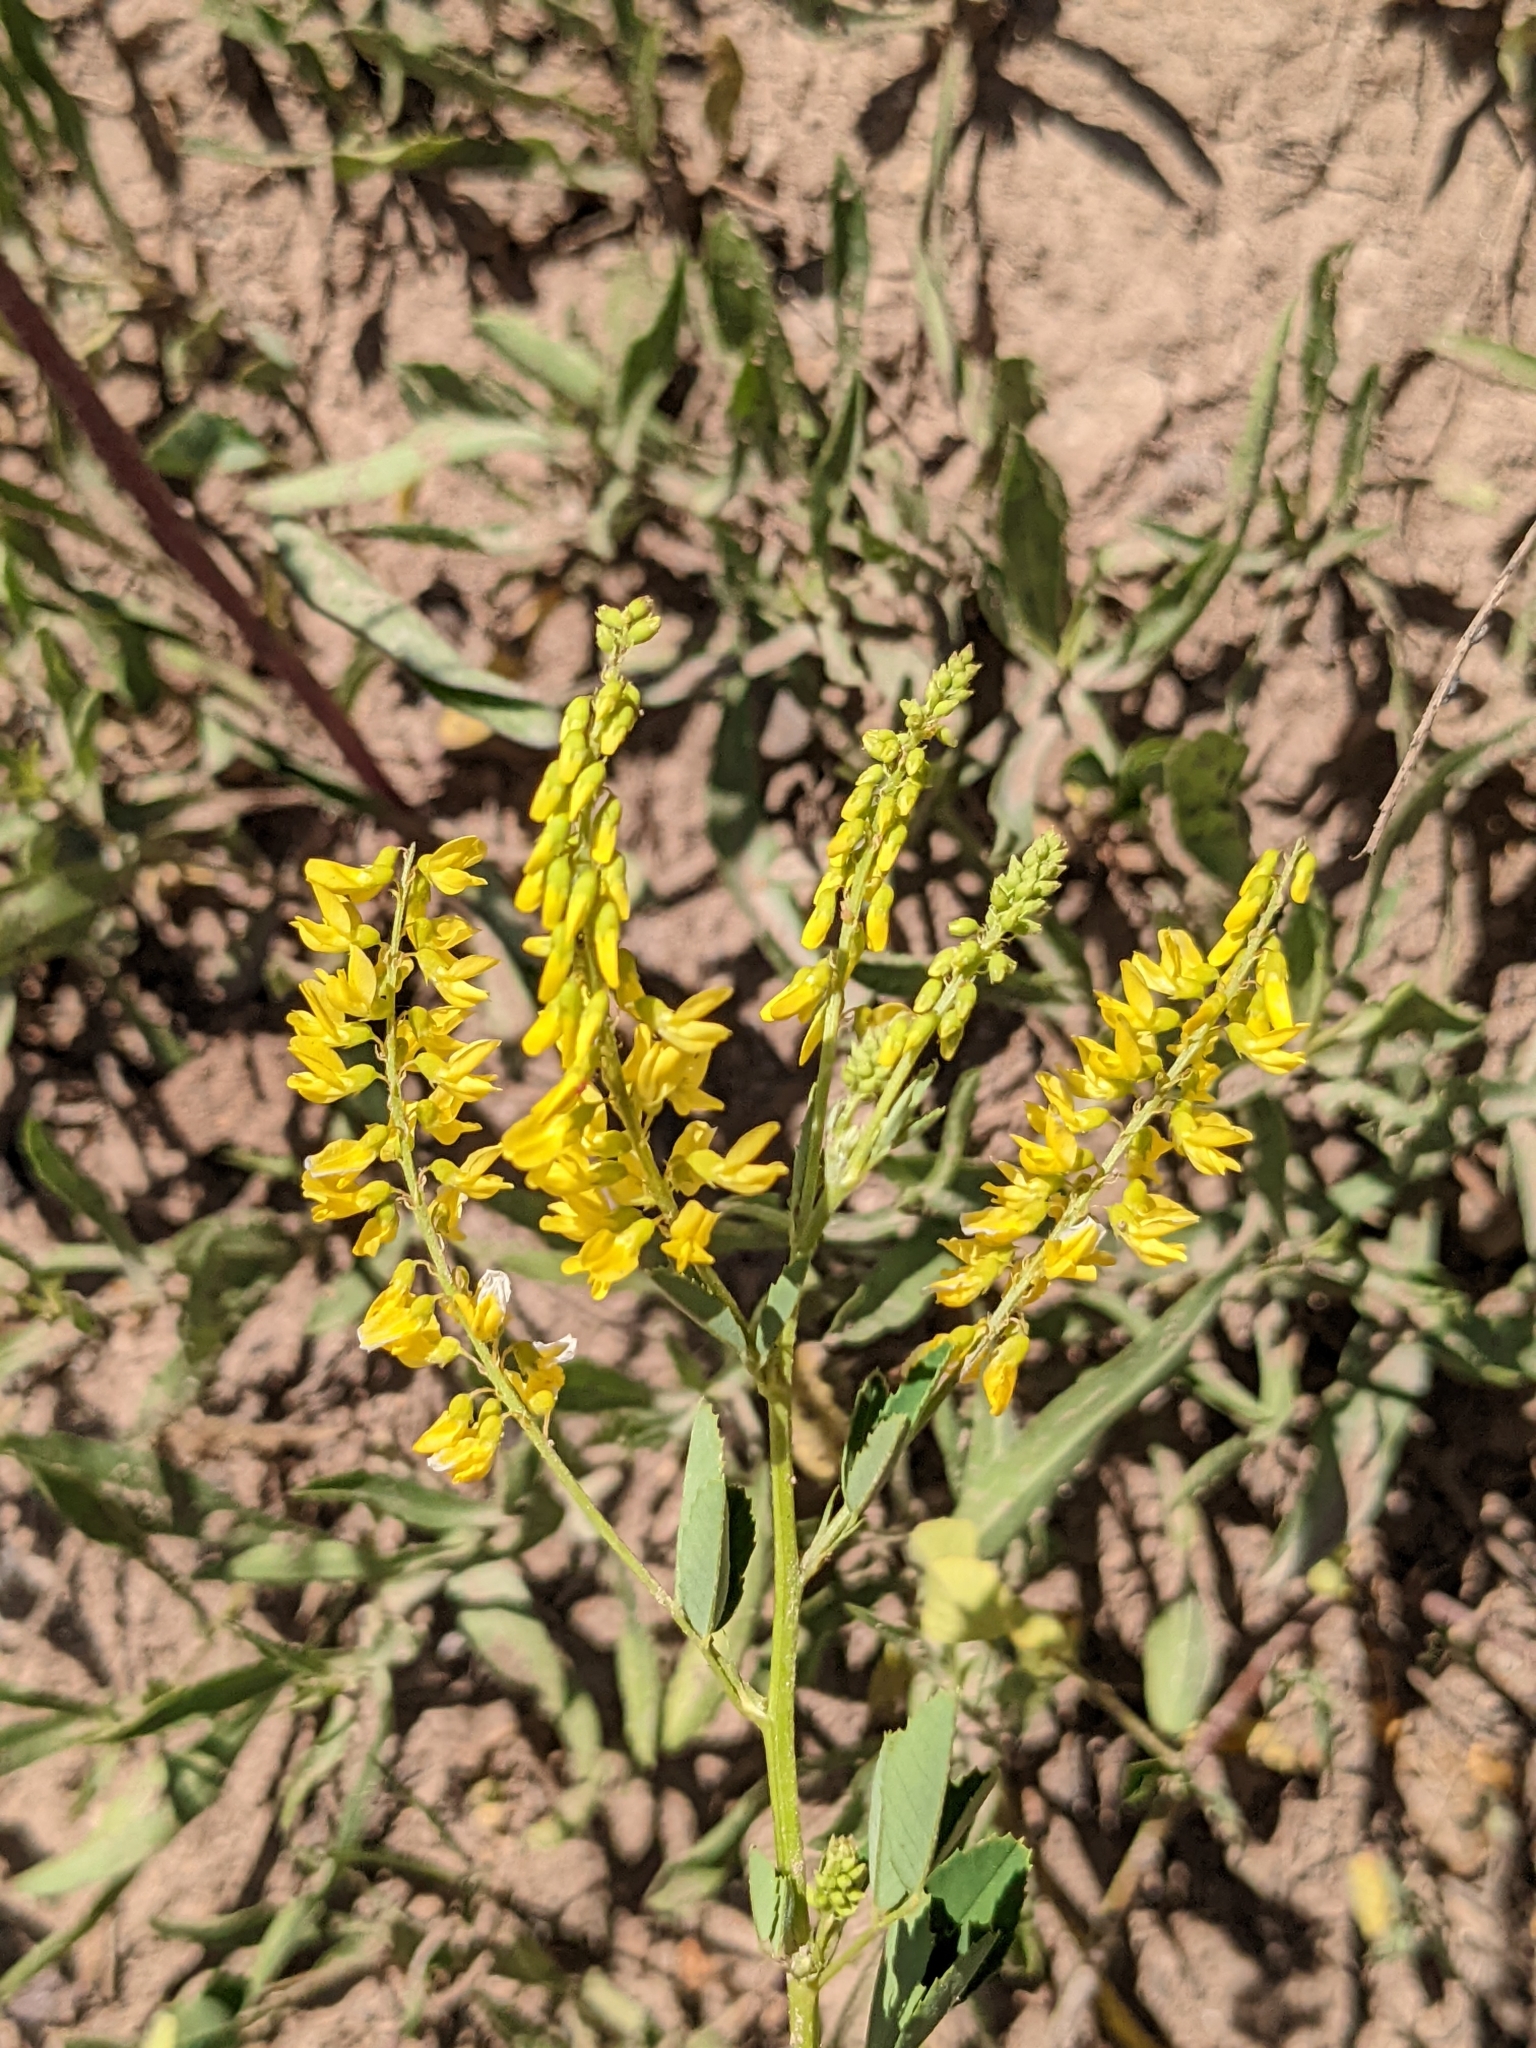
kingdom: Plantae
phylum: Tracheophyta
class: Magnoliopsida
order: Fabales
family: Fabaceae
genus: Melilotus
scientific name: Melilotus officinalis
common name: Sweetclover
